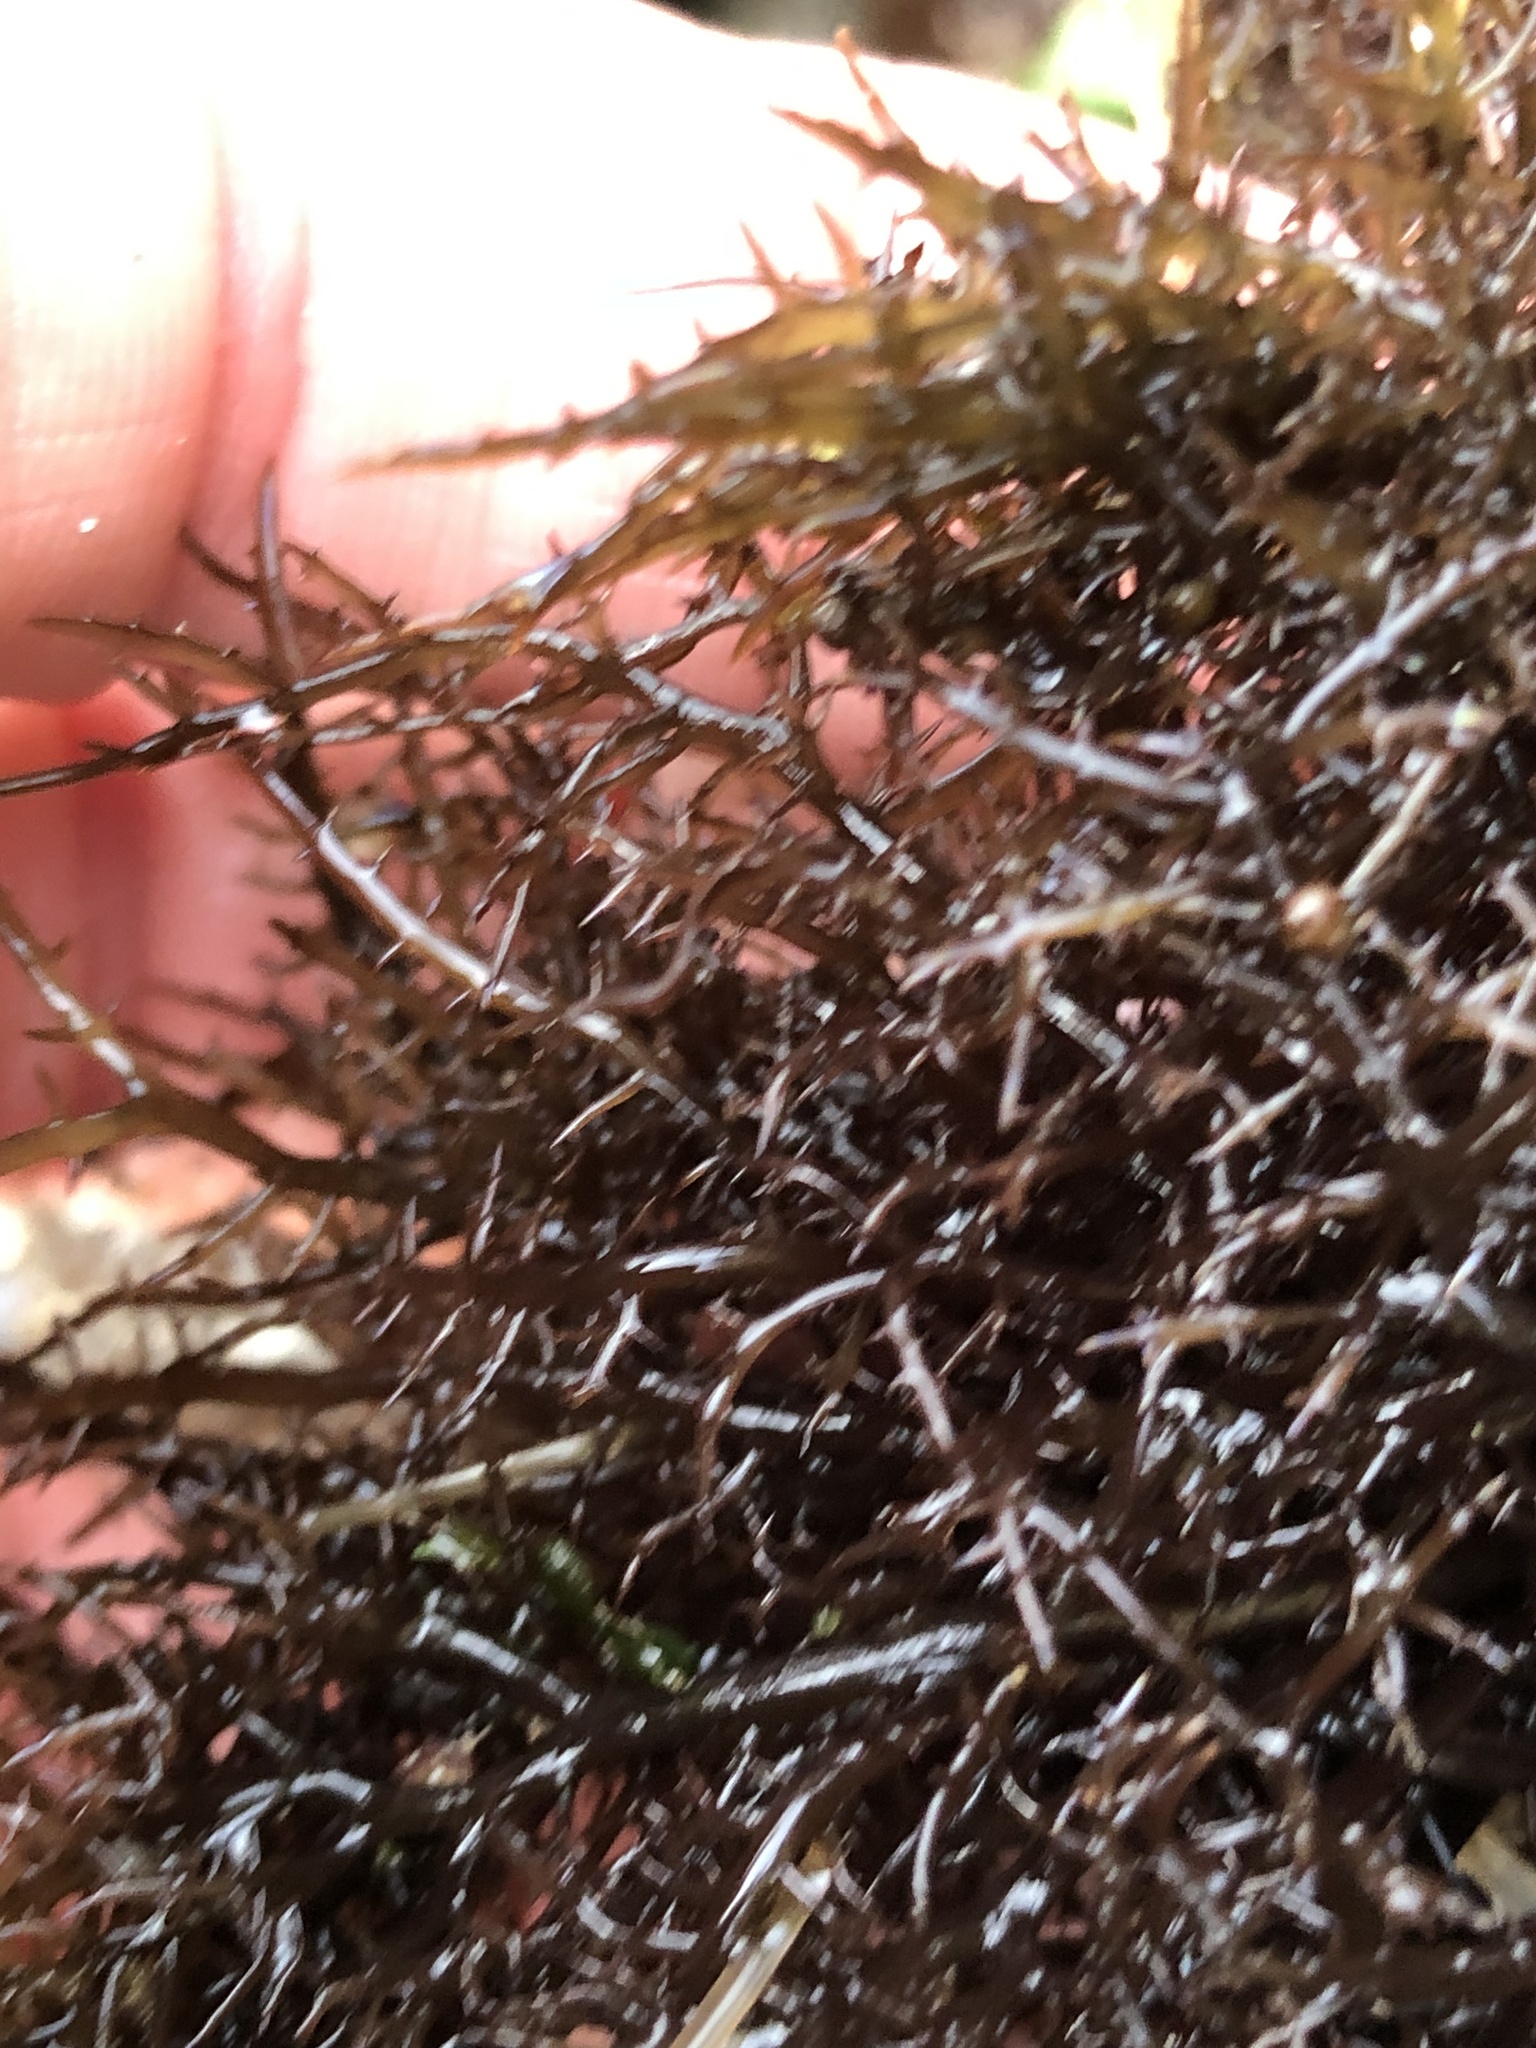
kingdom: Plantae
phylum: Rhodophyta
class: Florideophyceae
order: Gigartinales
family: Gigartinaceae
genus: Chondracanthus
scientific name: Chondracanthus canaliculatus
